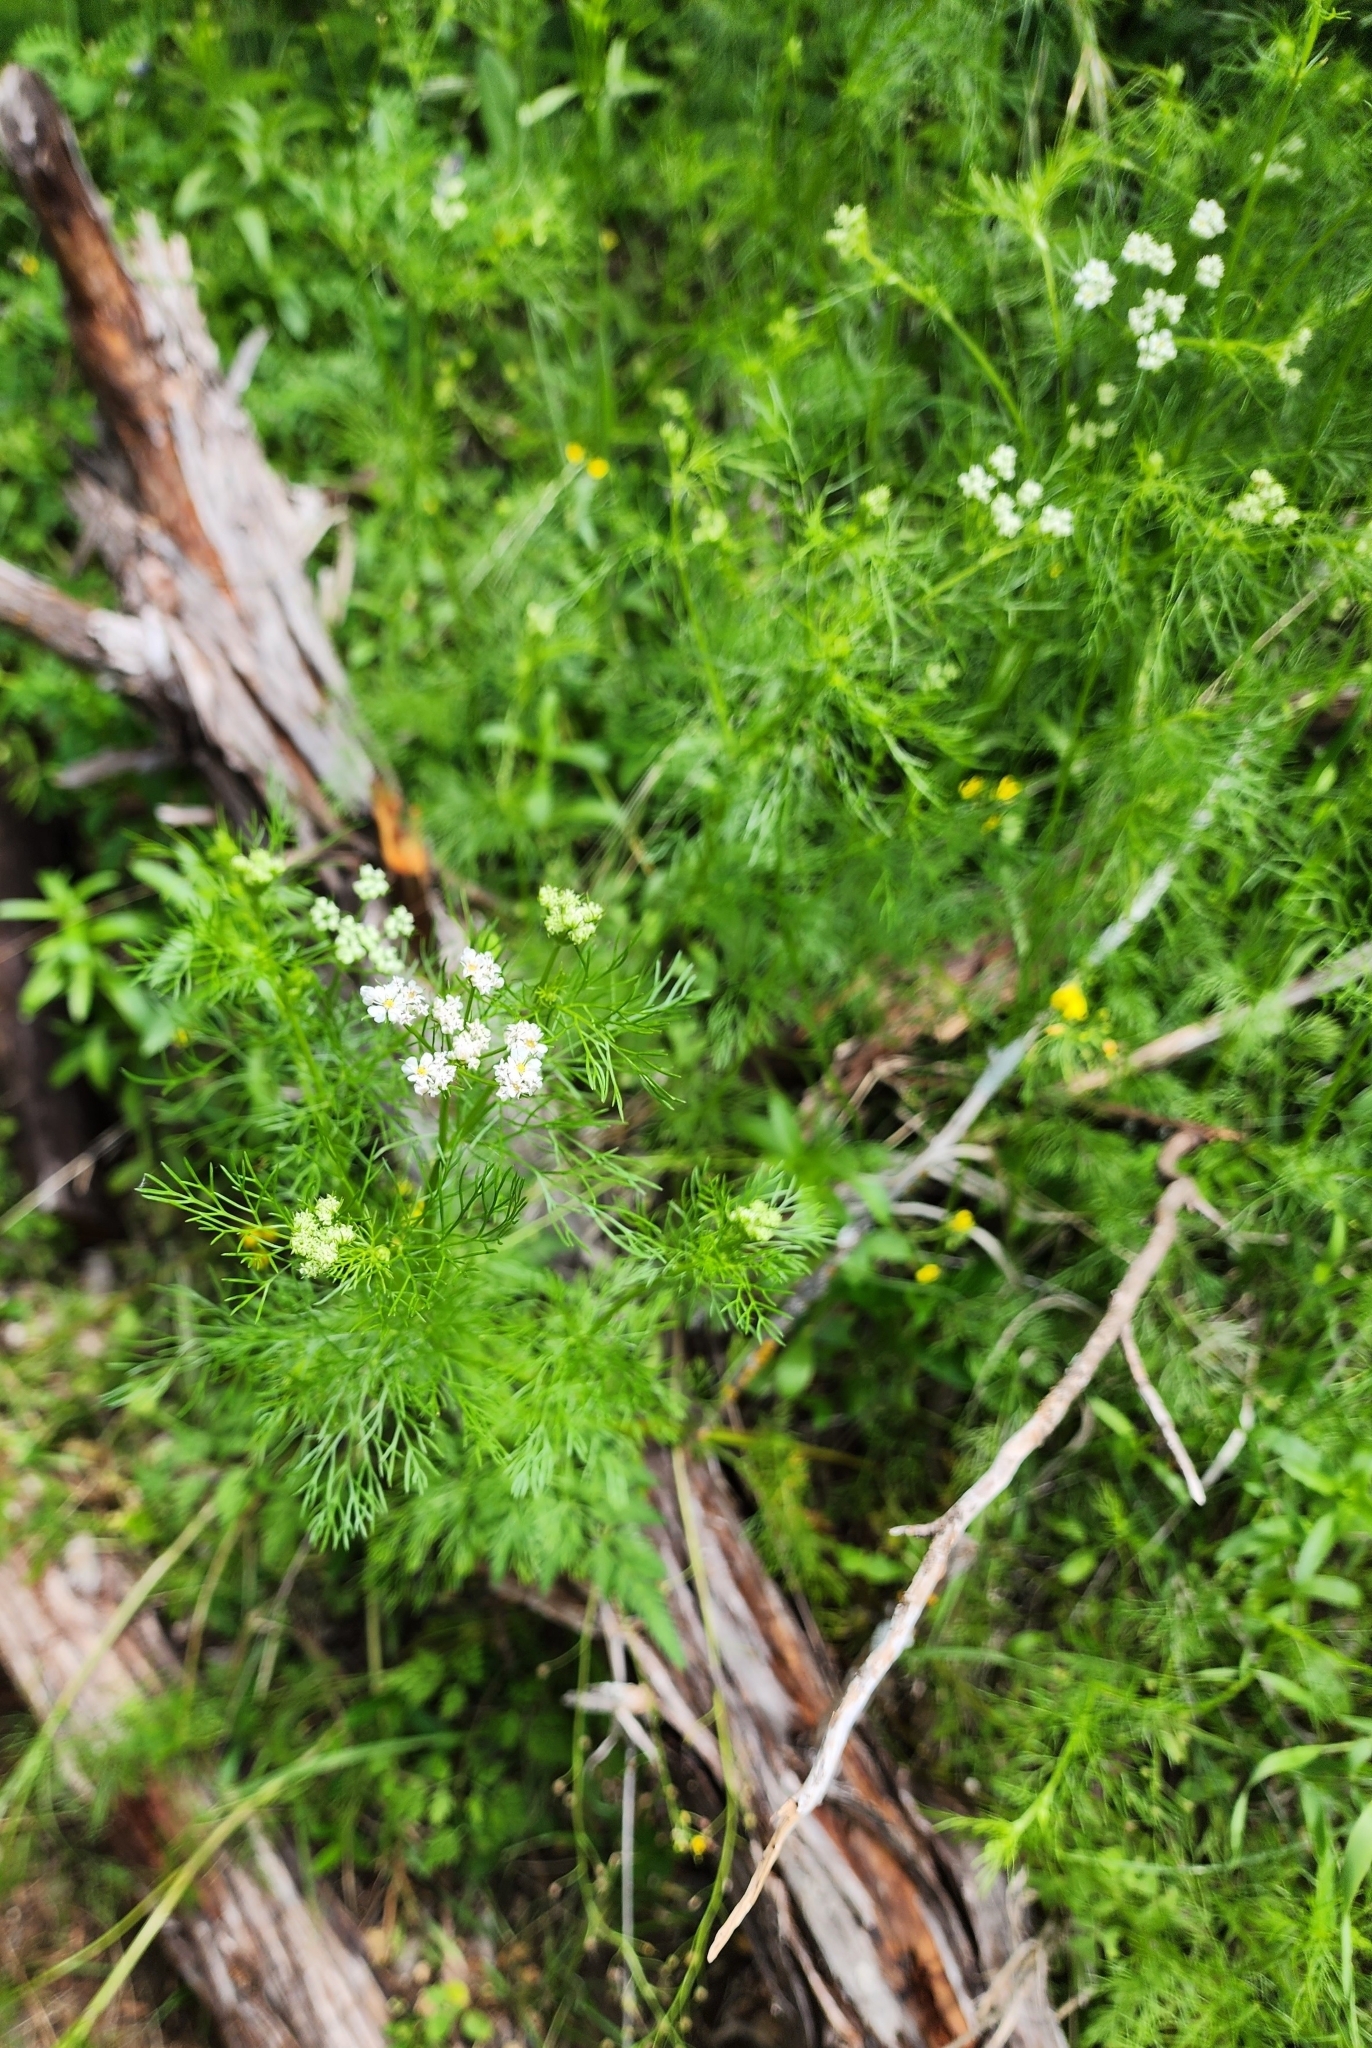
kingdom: Plantae
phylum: Tracheophyta
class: Magnoliopsida
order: Apiales
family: Apiaceae
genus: Atrema
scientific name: Atrema americanum
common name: Prairie-bishop
